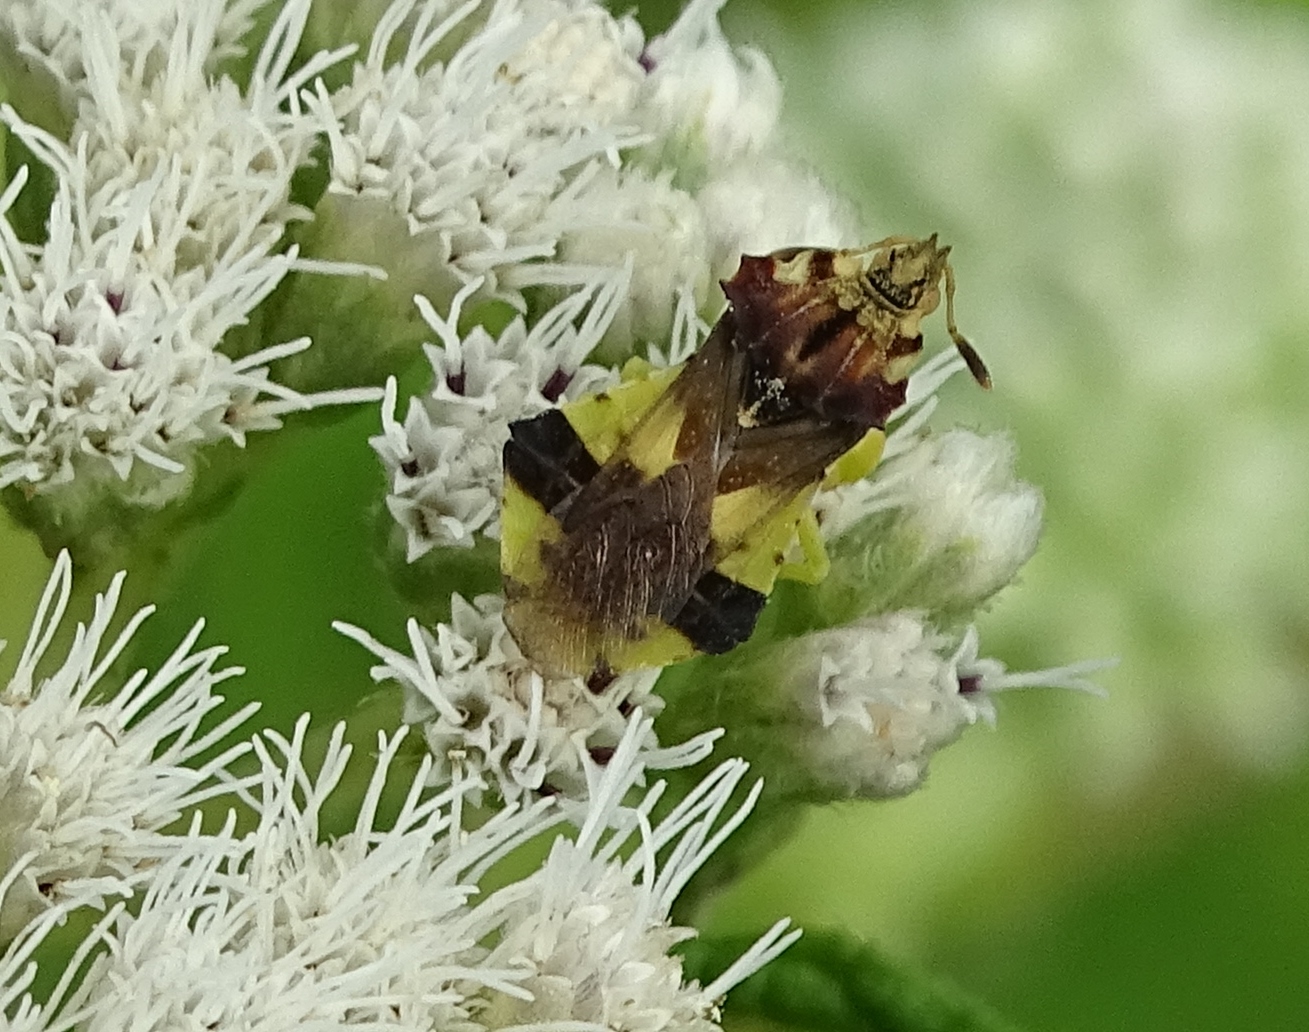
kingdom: Animalia
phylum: Arthropoda
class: Insecta
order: Hemiptera
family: Reduviidae
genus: Phymata
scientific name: Phymata americana
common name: Jagged ambush bug
